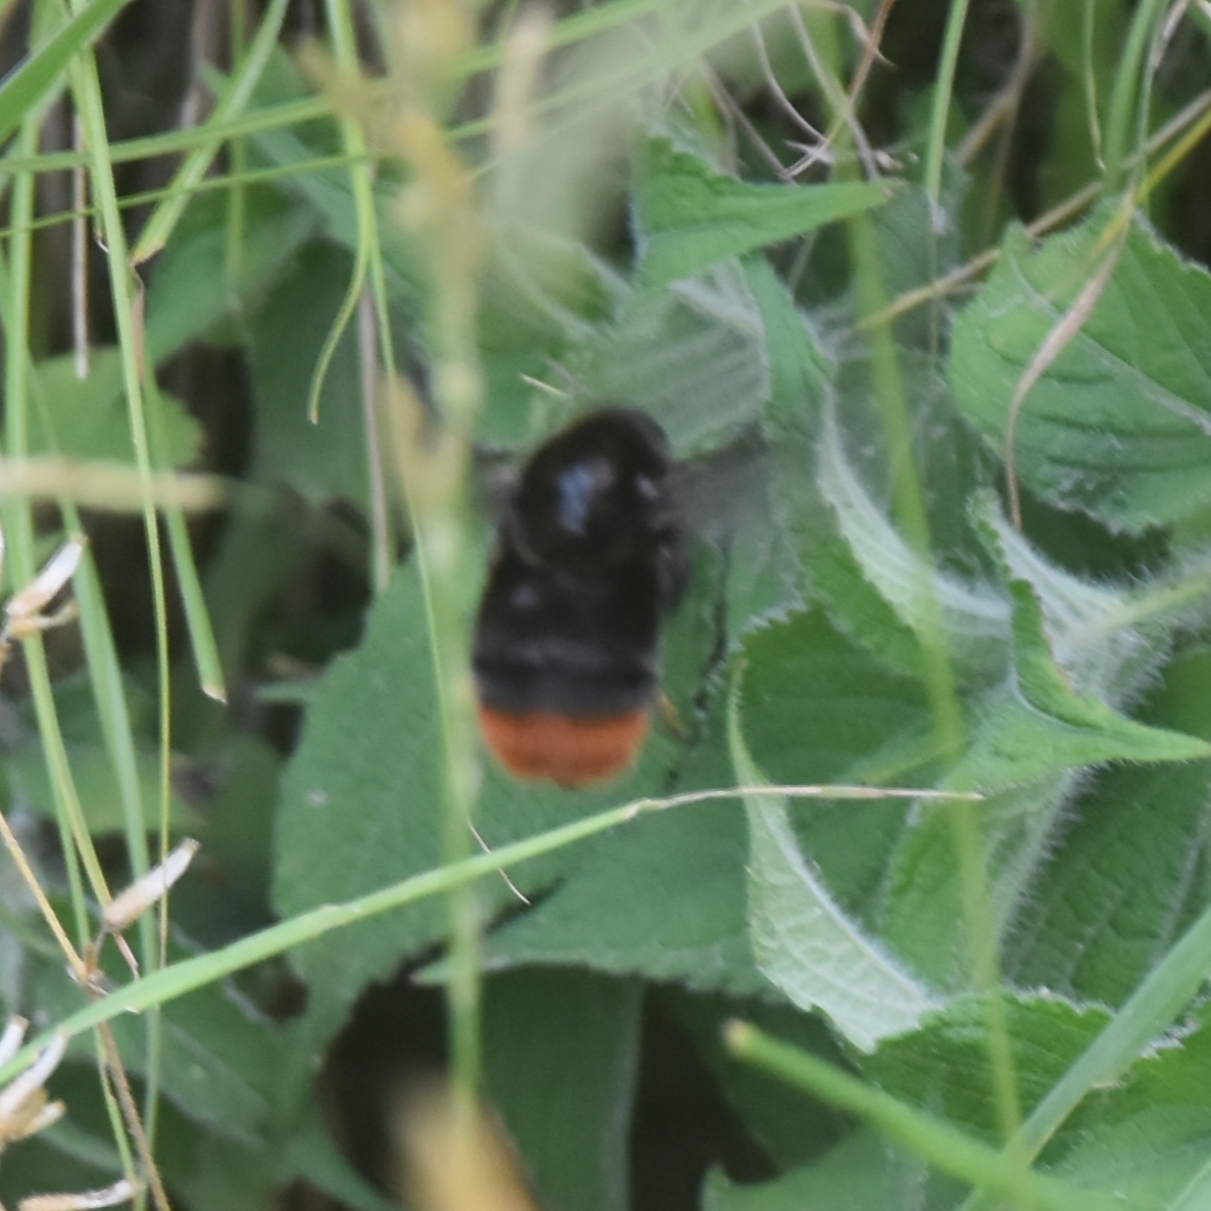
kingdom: Animalia
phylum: Arthropoda
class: Insecta
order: Hymenoptera
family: Apidae
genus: Bombus
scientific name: Bombus simillimus
